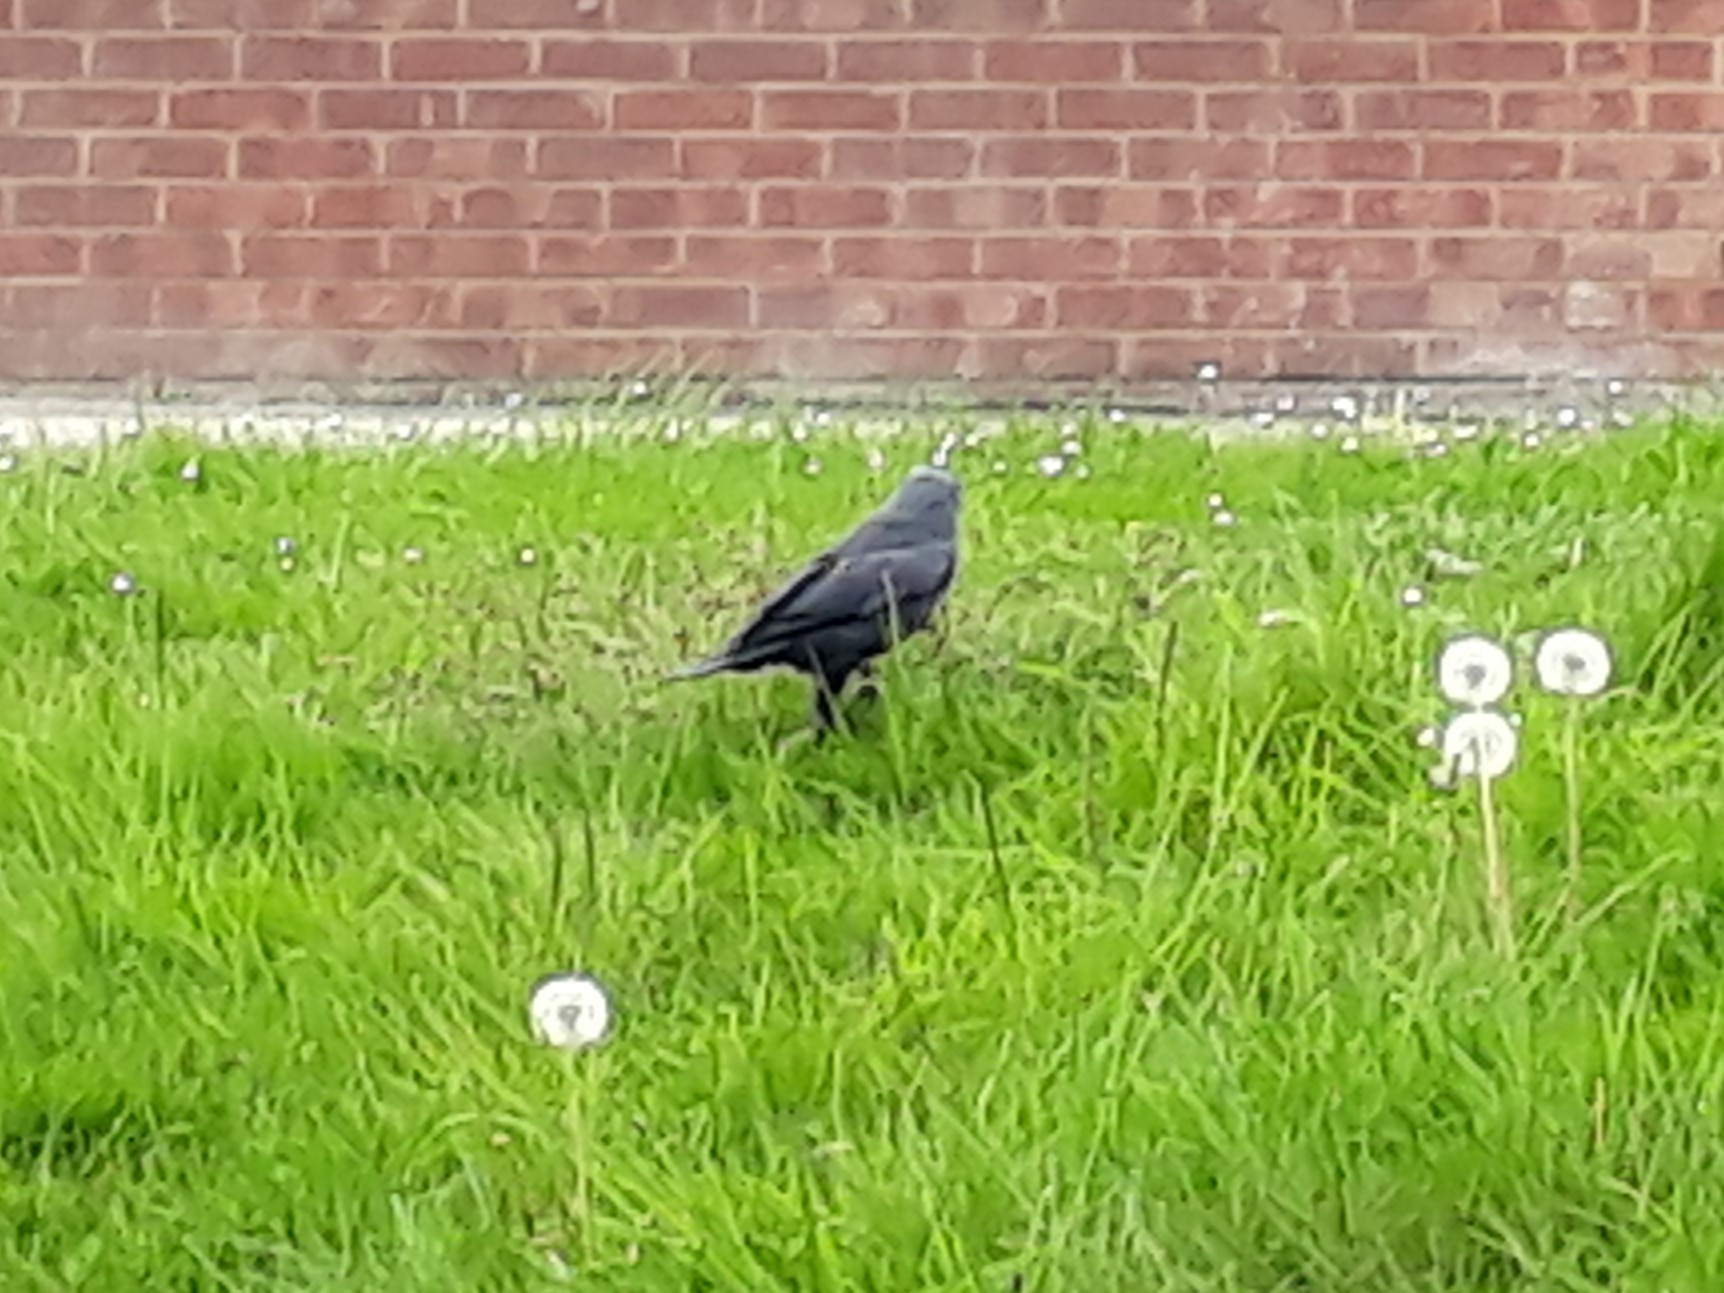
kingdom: Animalia
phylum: Chordata
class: Aves
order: Passeriformes
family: Corvidae
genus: Coloeus
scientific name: Coloeus monedula
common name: Western jackdaw
